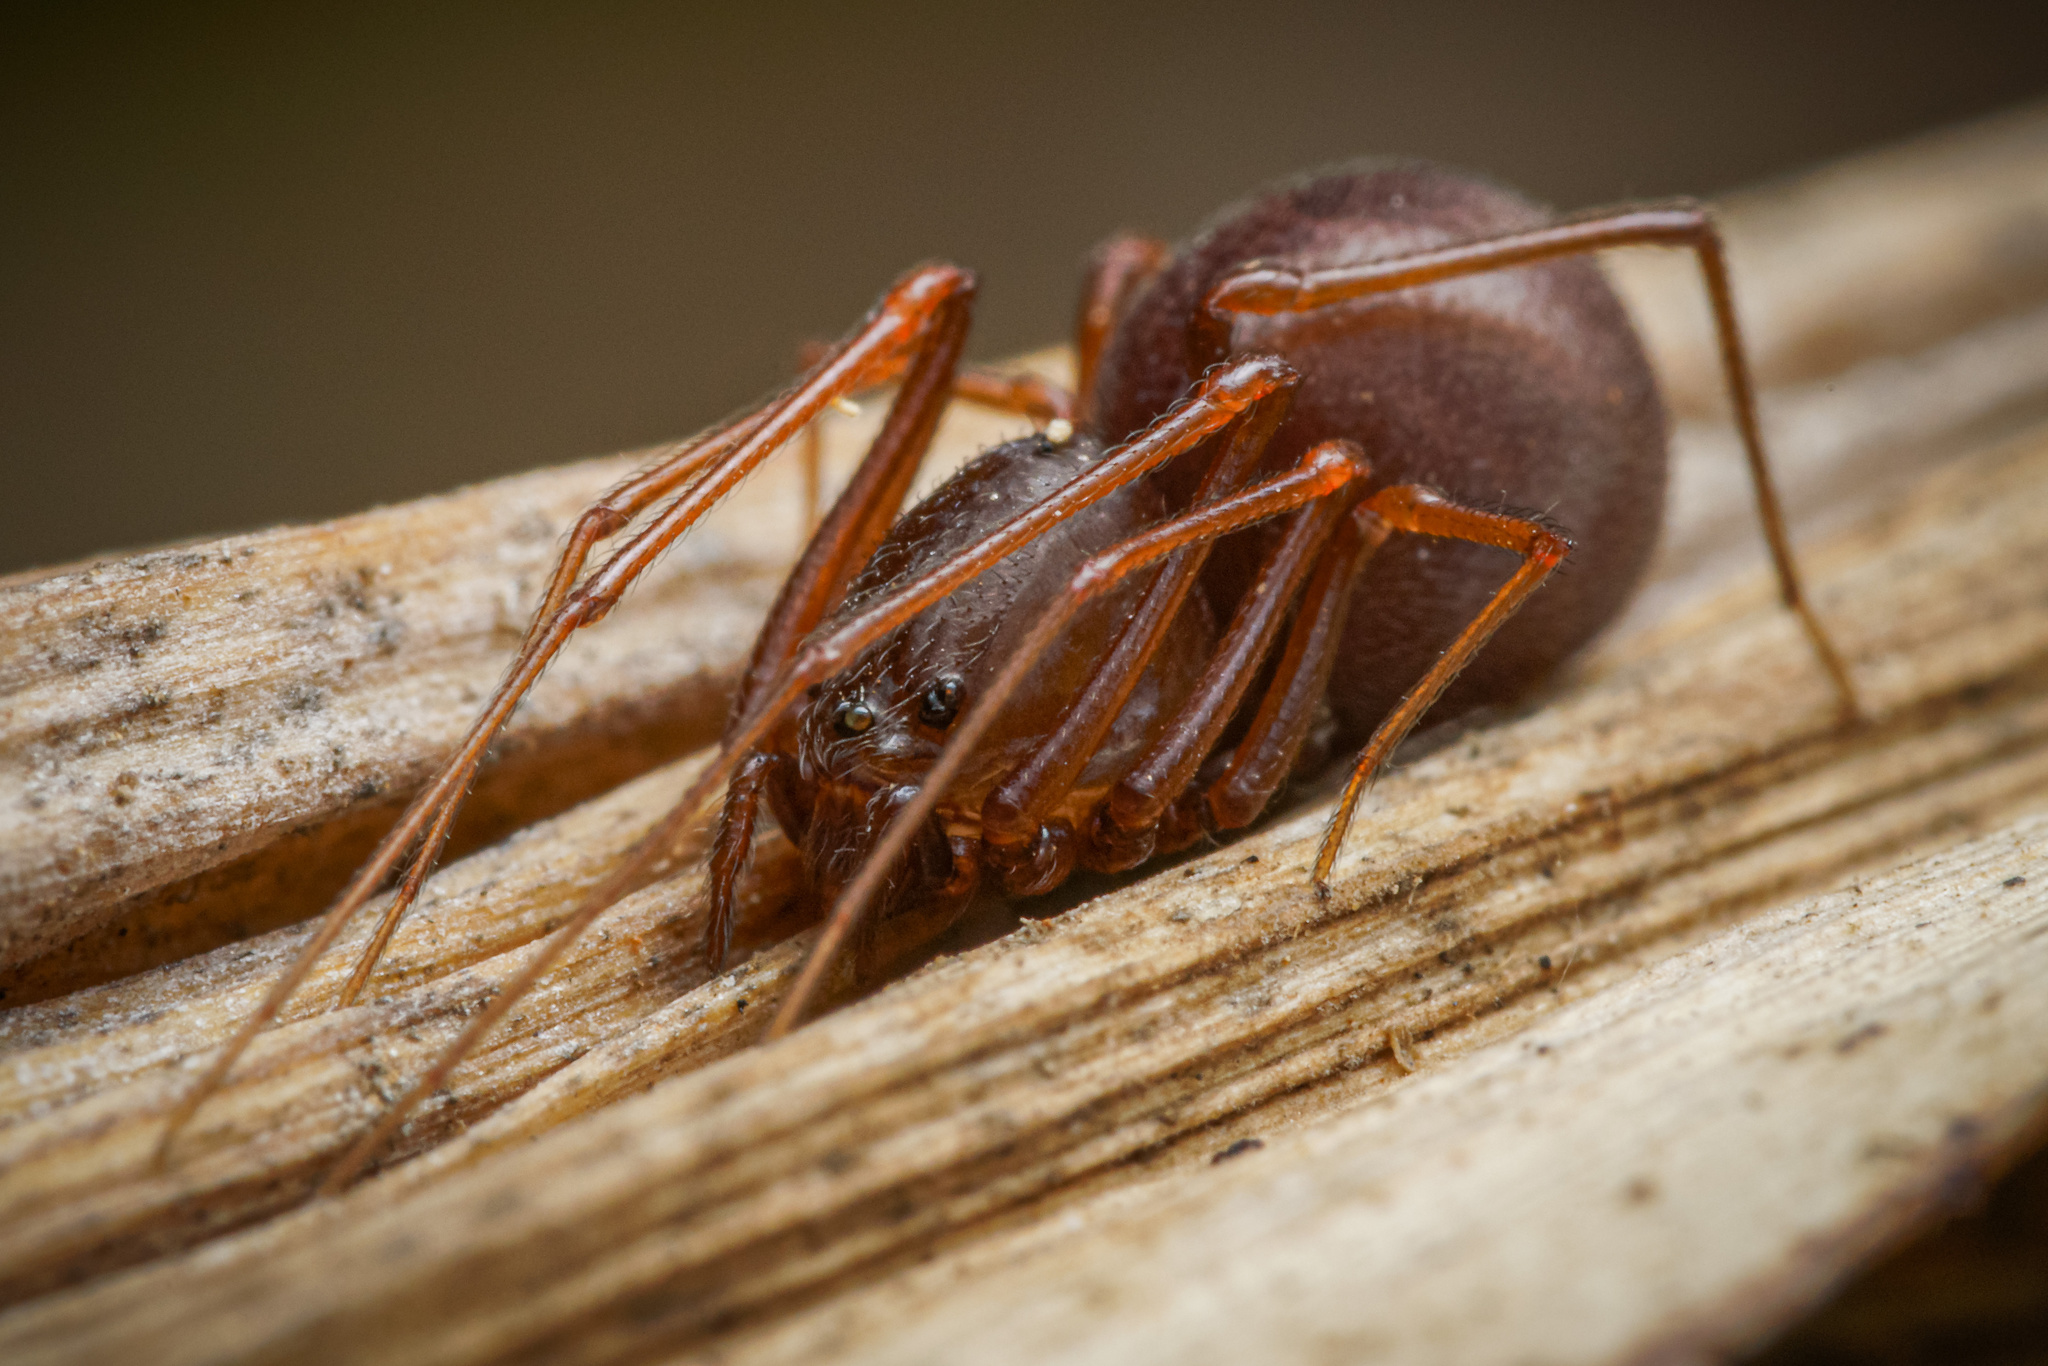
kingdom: Animalia
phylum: Arthropoda
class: Arachnida
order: Araneae
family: Scytodidae
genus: Scytodes
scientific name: Scytodes fusca
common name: Spitting spiders
